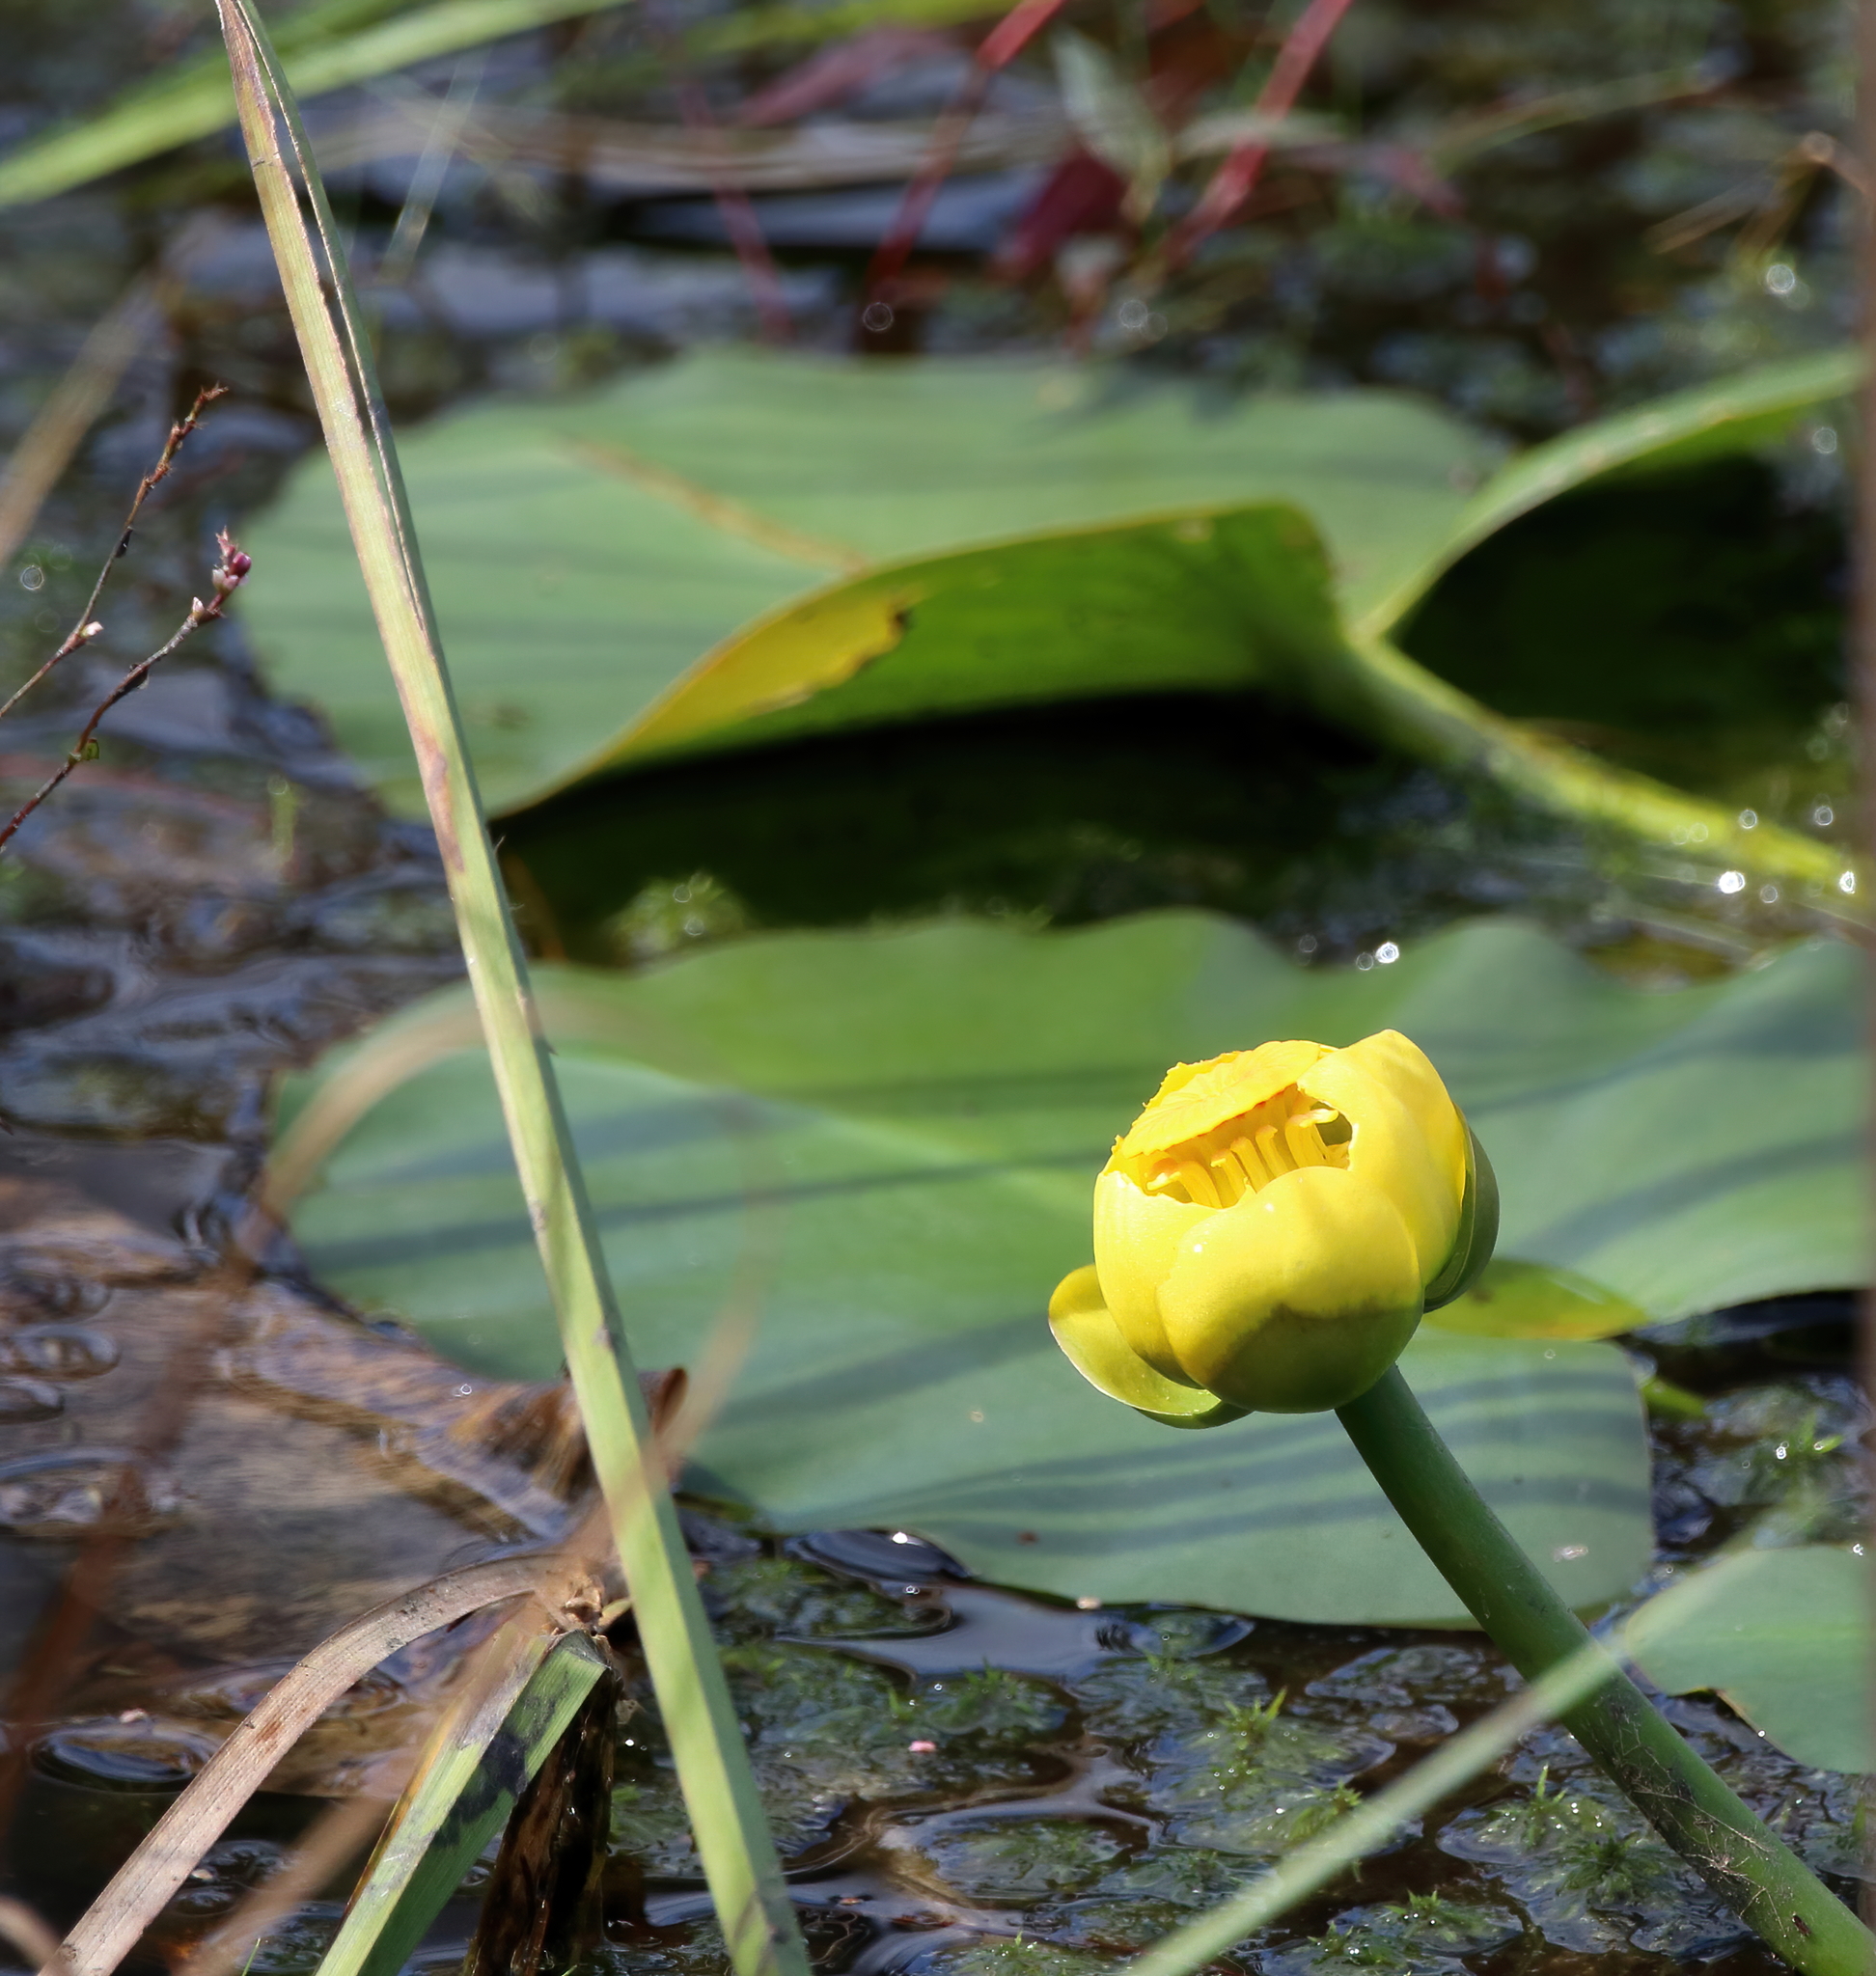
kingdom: Plantae
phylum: Tracheophyta
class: Magnoliopsida
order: Nymphaeales
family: Nymphaeaceae
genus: Nuphar
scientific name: Nuphar advena
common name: Spatter-dock
